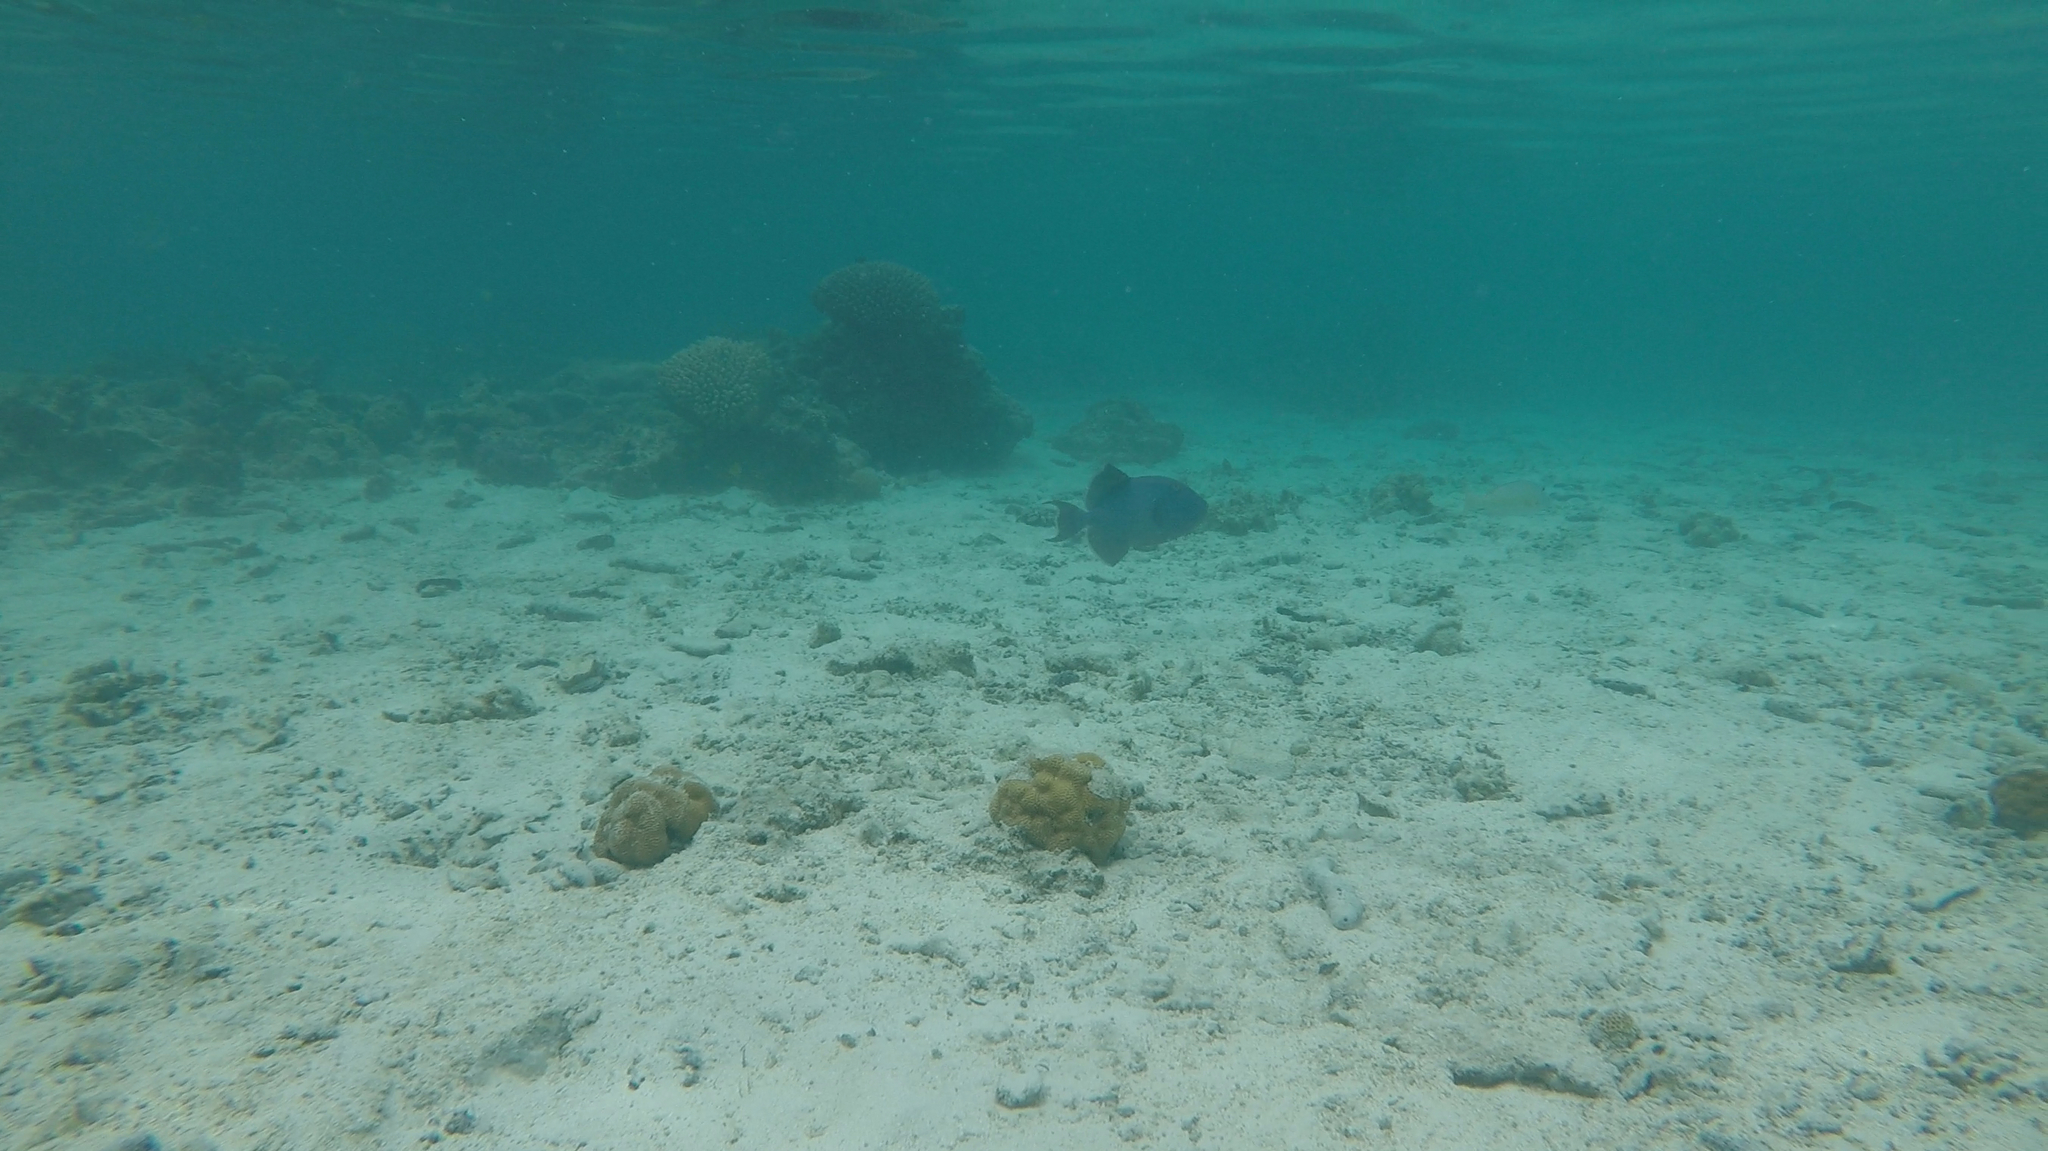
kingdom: Animalia
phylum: Chordata
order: Tetraodontiformes
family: Balistidae
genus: Pseudobalistes
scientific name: Pseudobalistes fuscus
